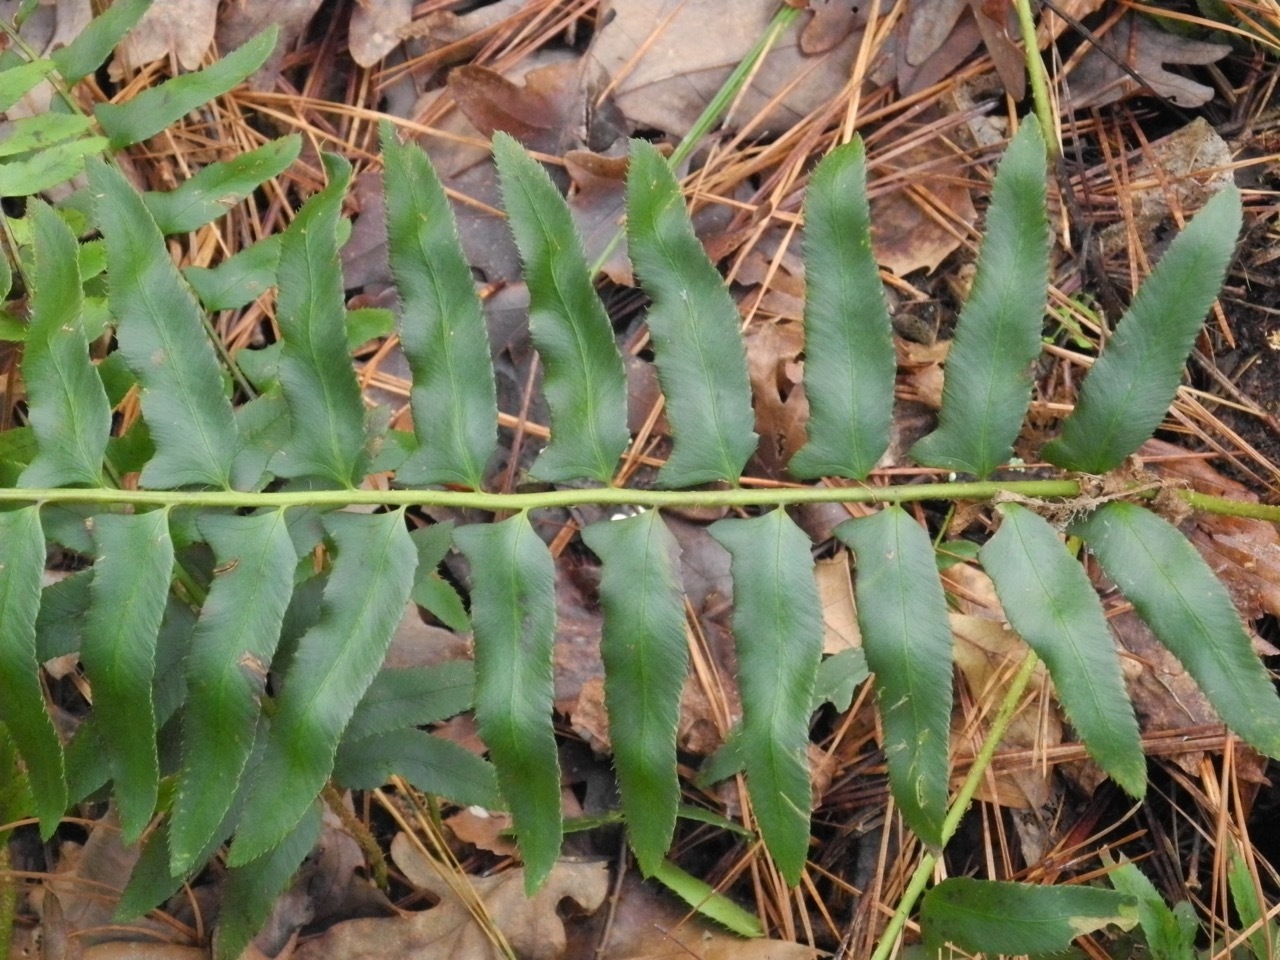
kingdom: Plantae
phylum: Tracheophyta
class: Polypodiopsida
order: Polypodiales
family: Dryopteridaceae
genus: Polystichum
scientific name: Polystichum acrostichoides
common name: Christmas fern
